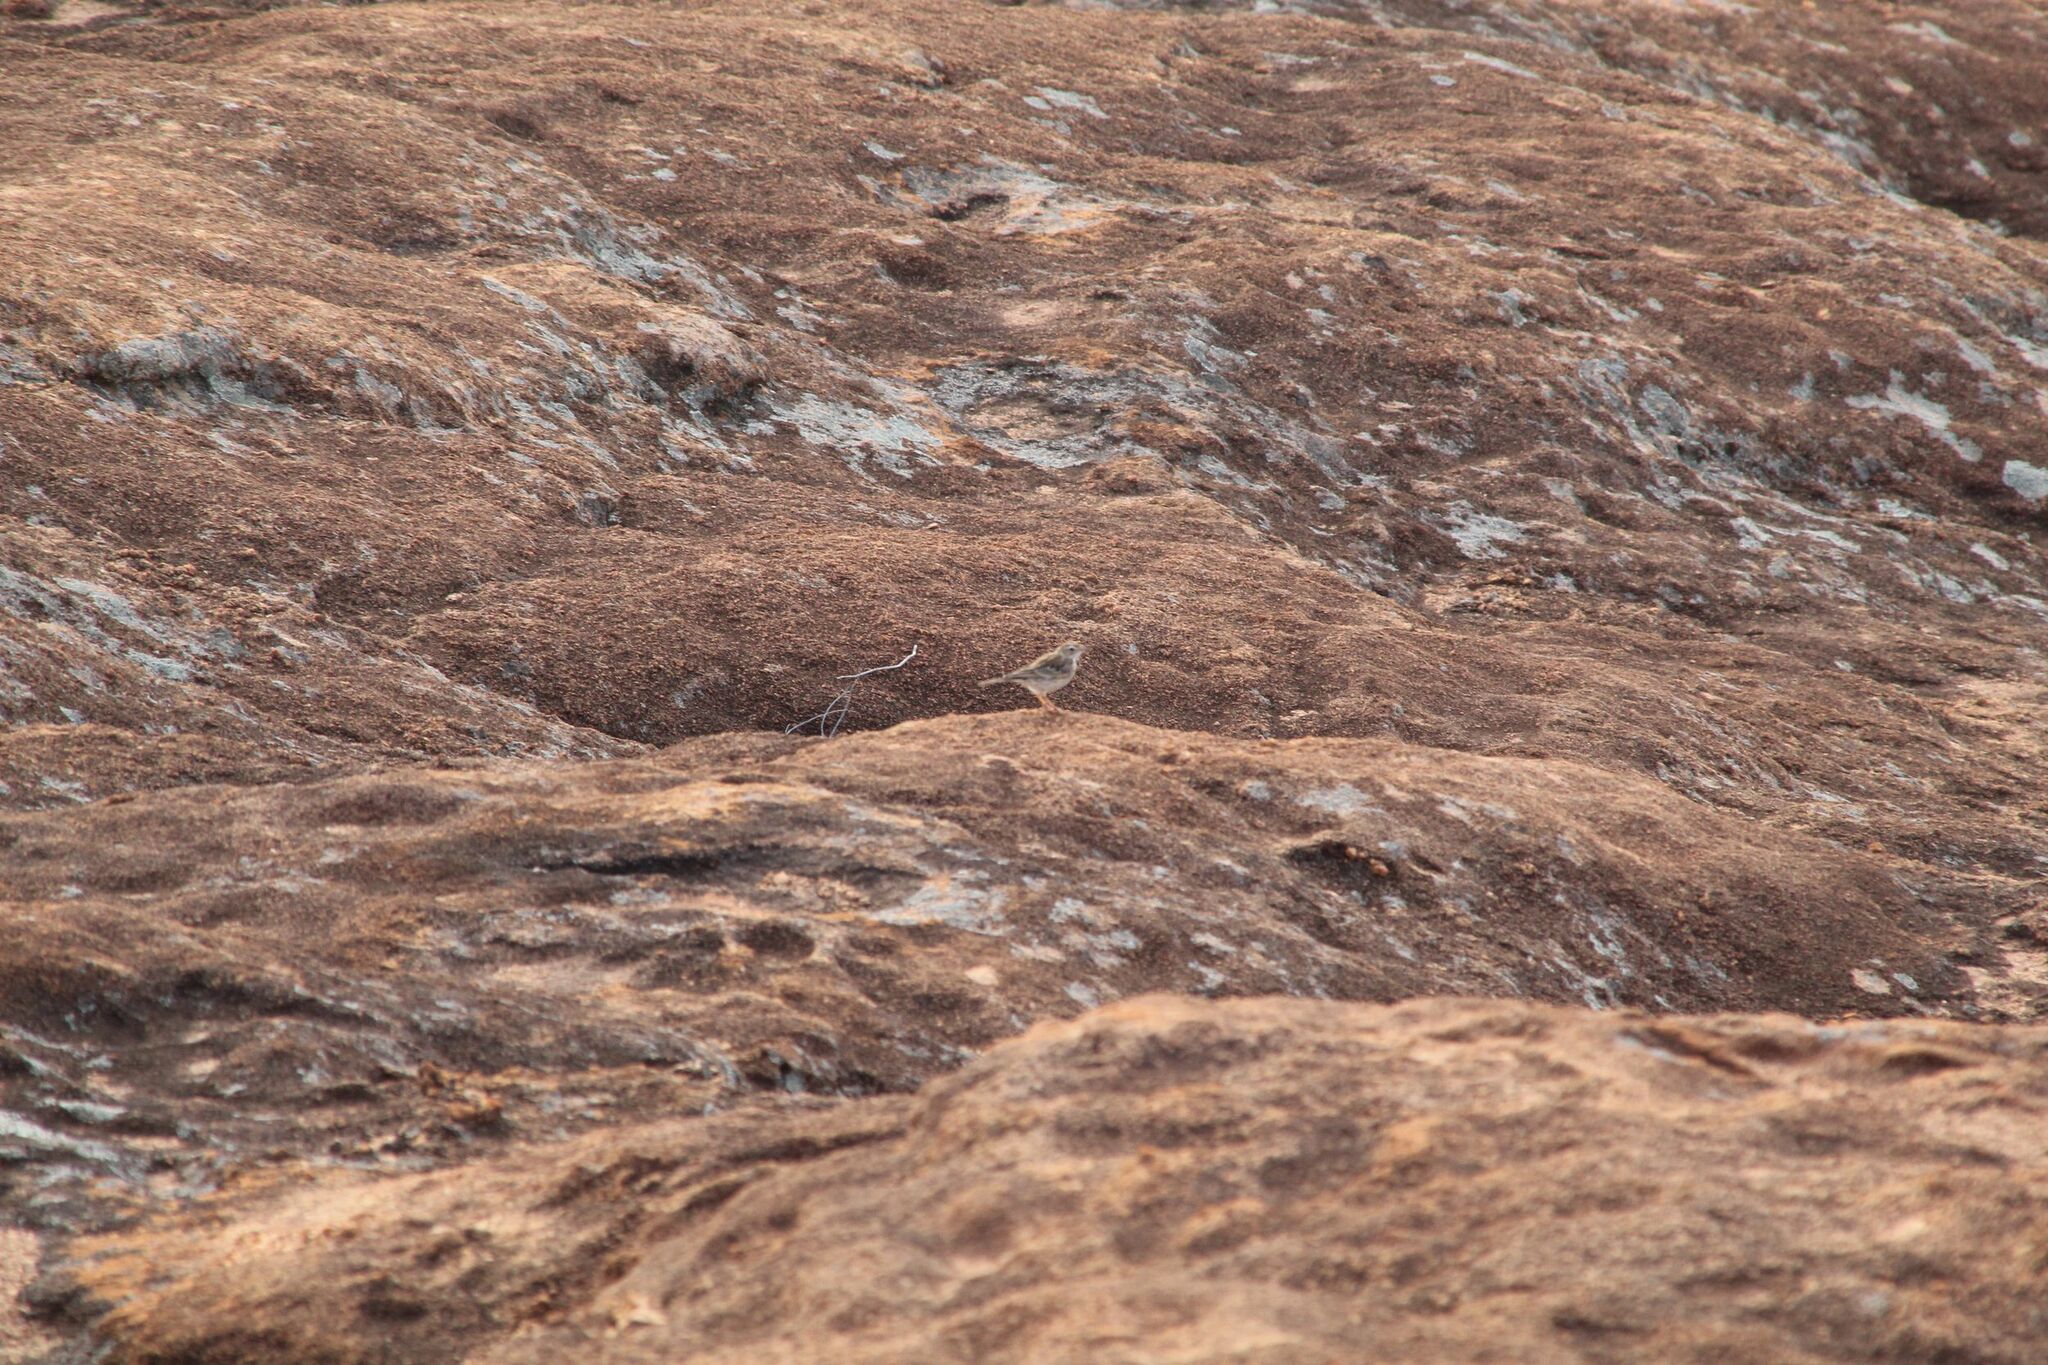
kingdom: Animalia
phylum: Chordata
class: Aves
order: Passeriformes
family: Motacillidae
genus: Anthus
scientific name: Anthus australis
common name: Australian pipit
